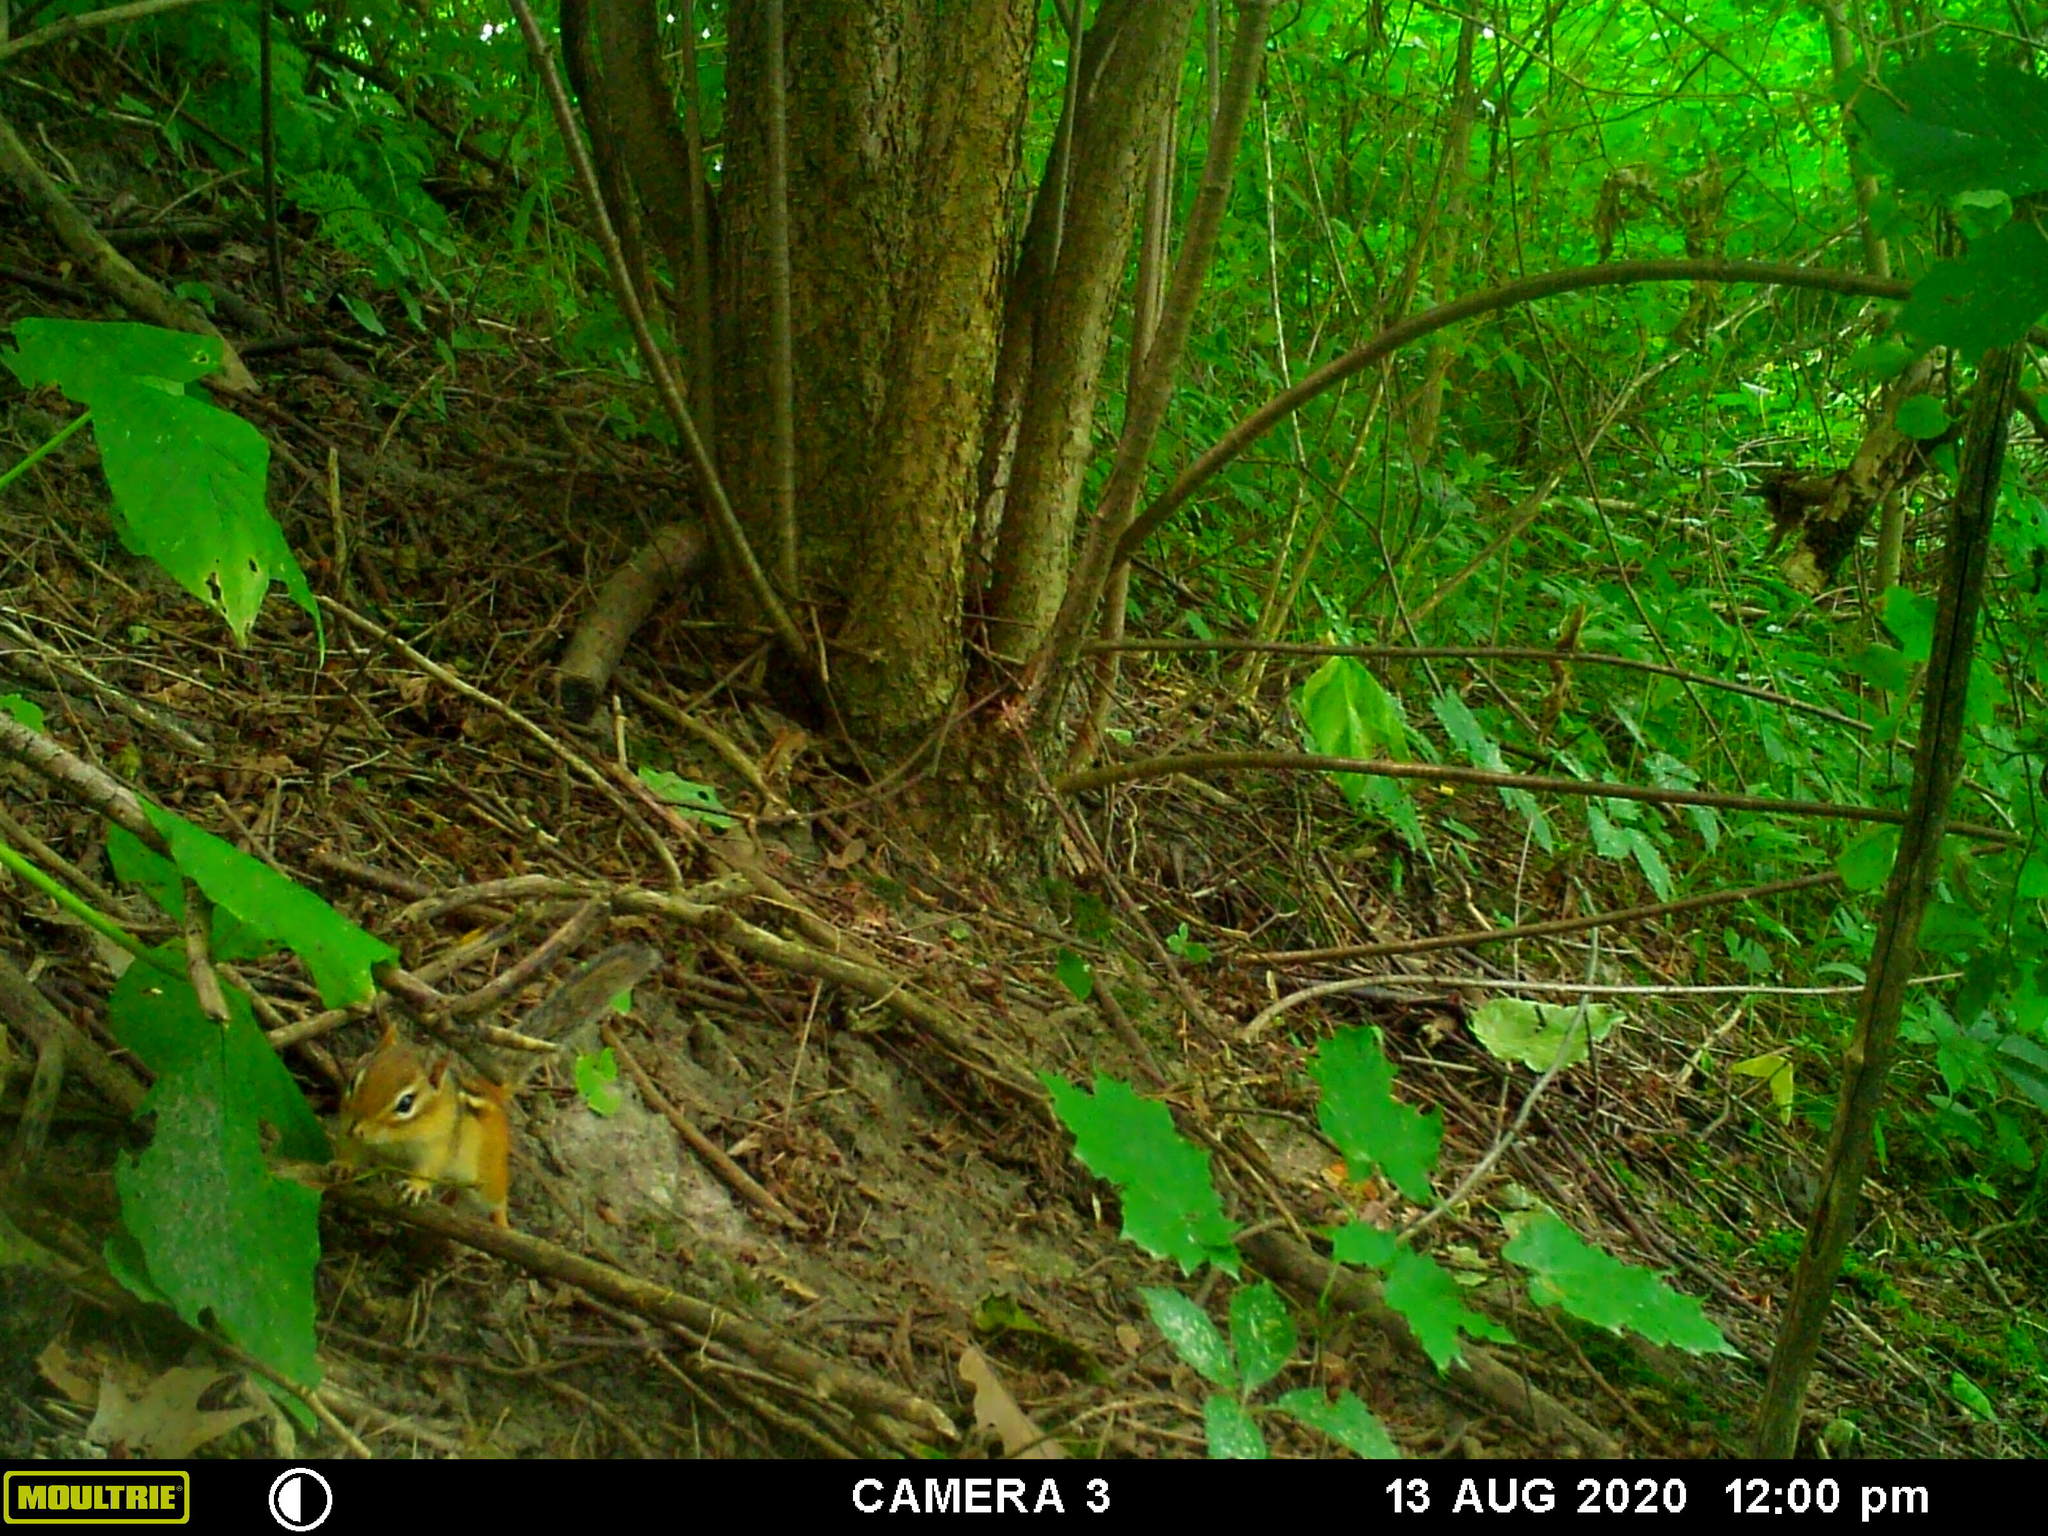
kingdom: Animalia
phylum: Chordata
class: Mammalia
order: Rodentia
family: Sciuridae
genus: Tamias
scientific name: Tamias striatus
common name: Eastern chipmunk
